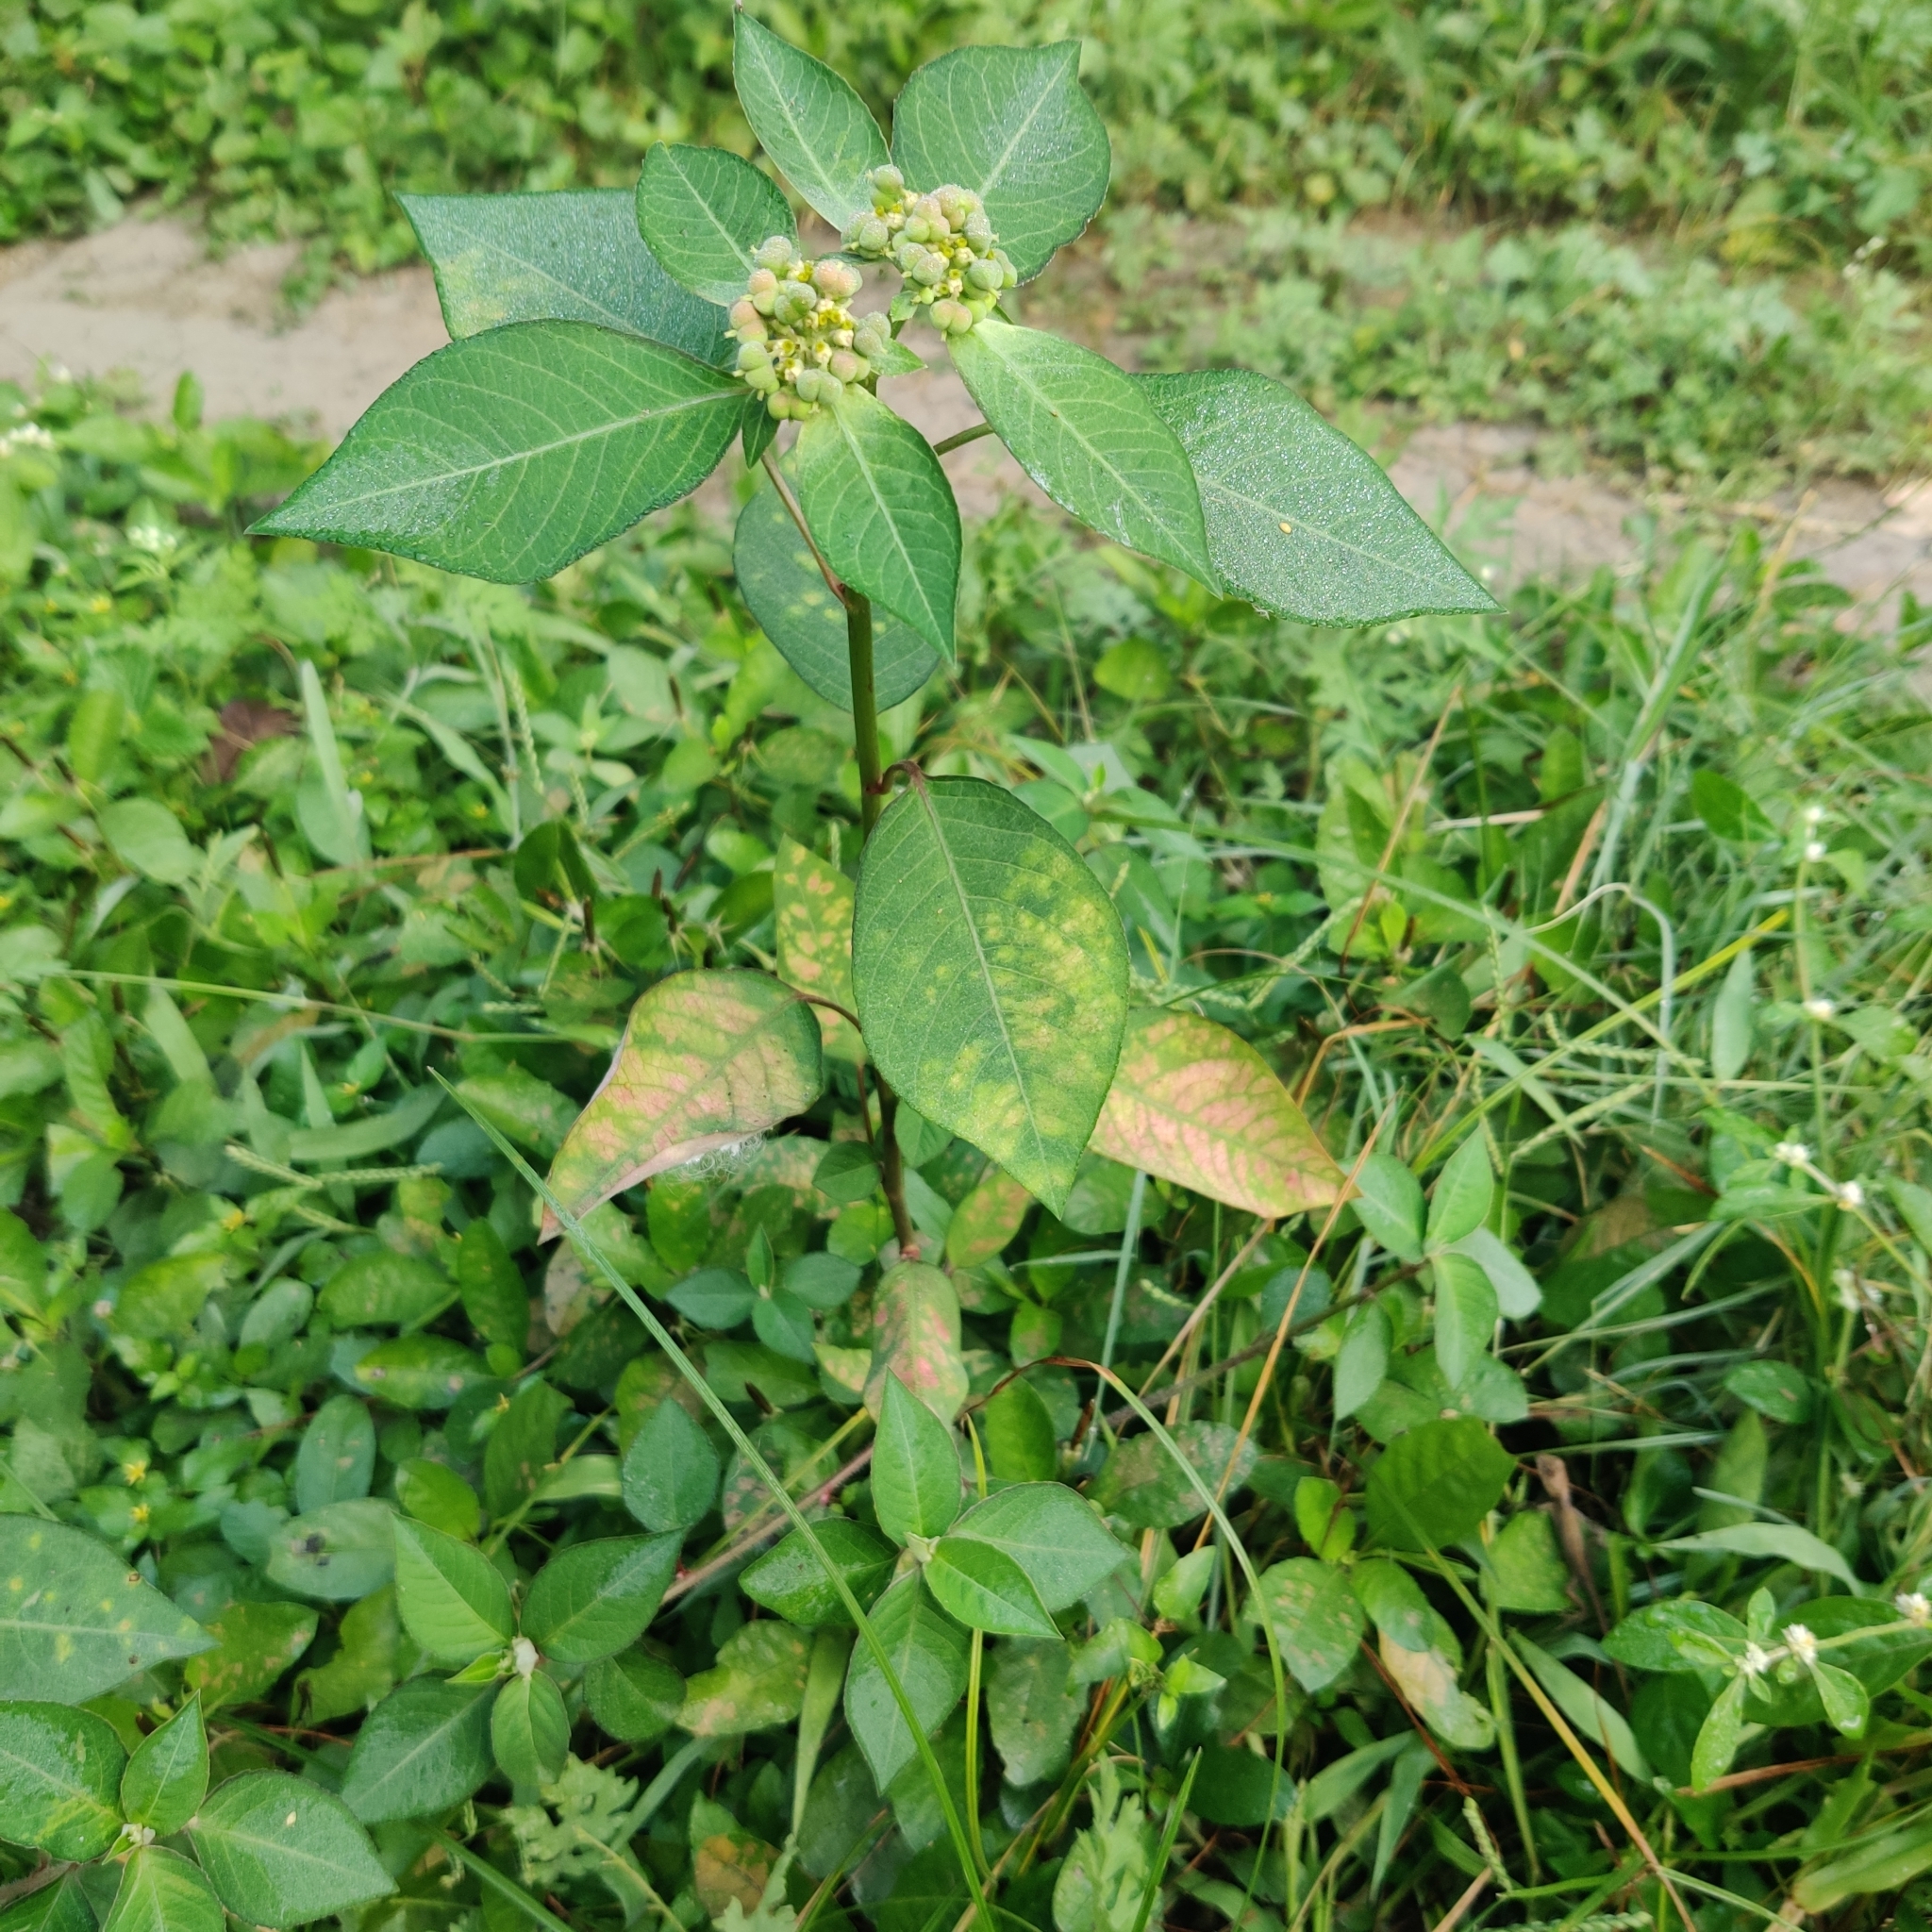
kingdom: Plantae
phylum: Tracheophyta
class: Magnoliopsida
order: Malpighiales
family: Euphorbiaceae
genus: Euphorbia
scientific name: Euphorbia heterophylla
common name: Mexican fireplant
